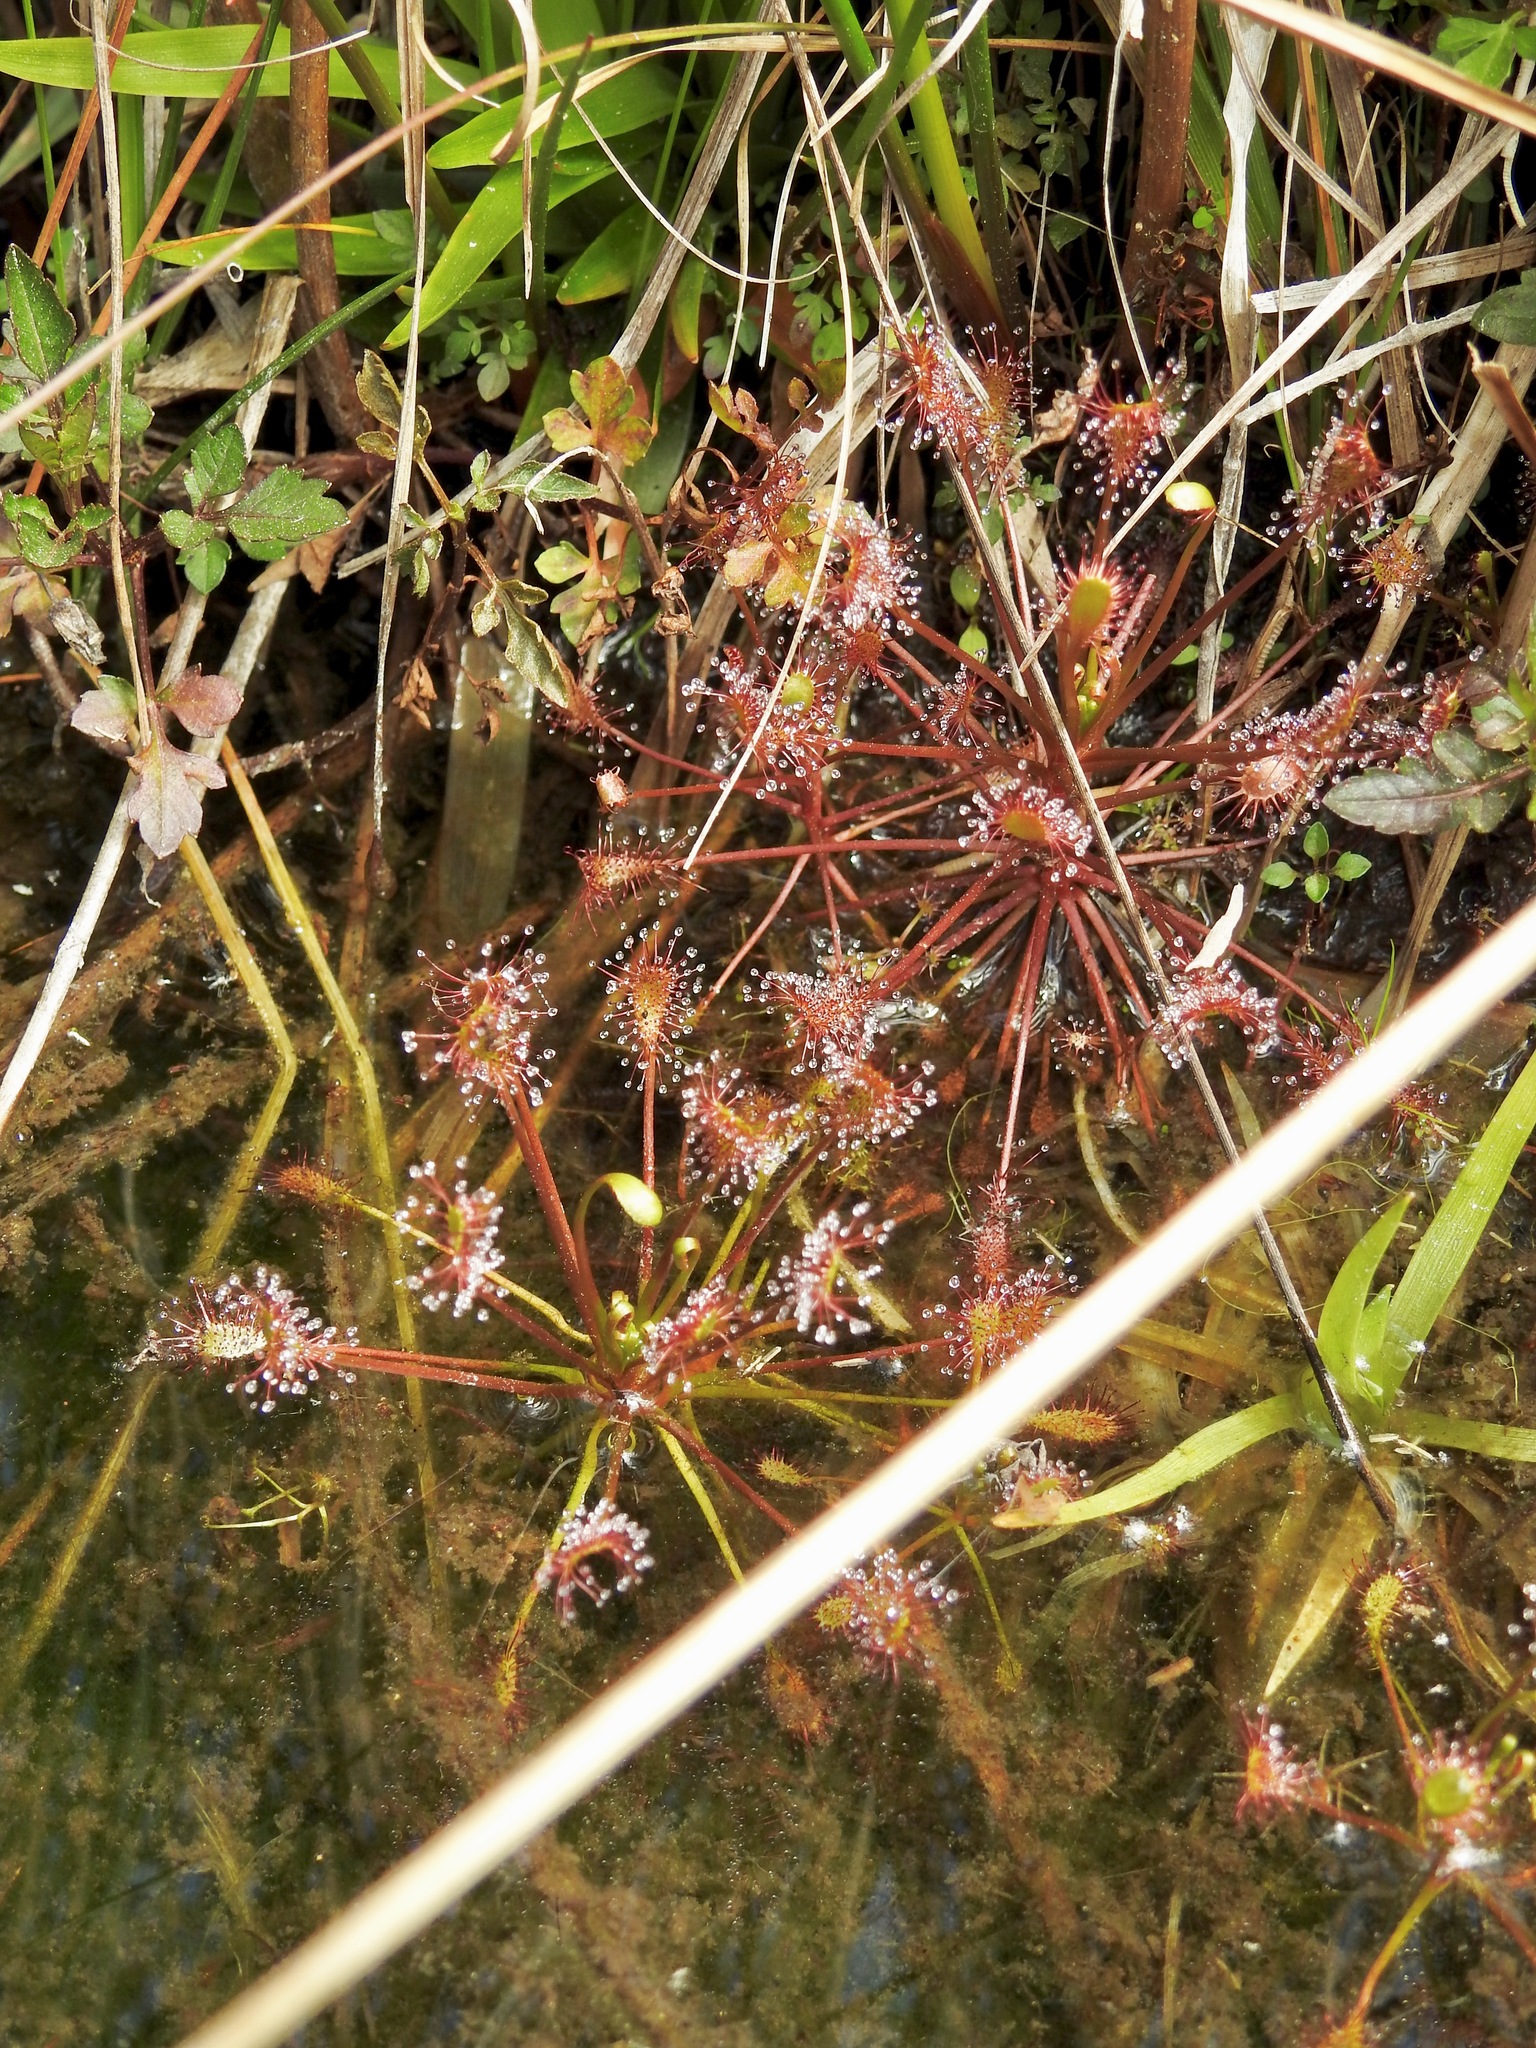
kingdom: Plantae
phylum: Tracheophyta
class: Magnoliopsida
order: Caryophyllales
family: Droseraceae
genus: Drosera
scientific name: Drosera intermedia
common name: Oblong-leaved sundew
